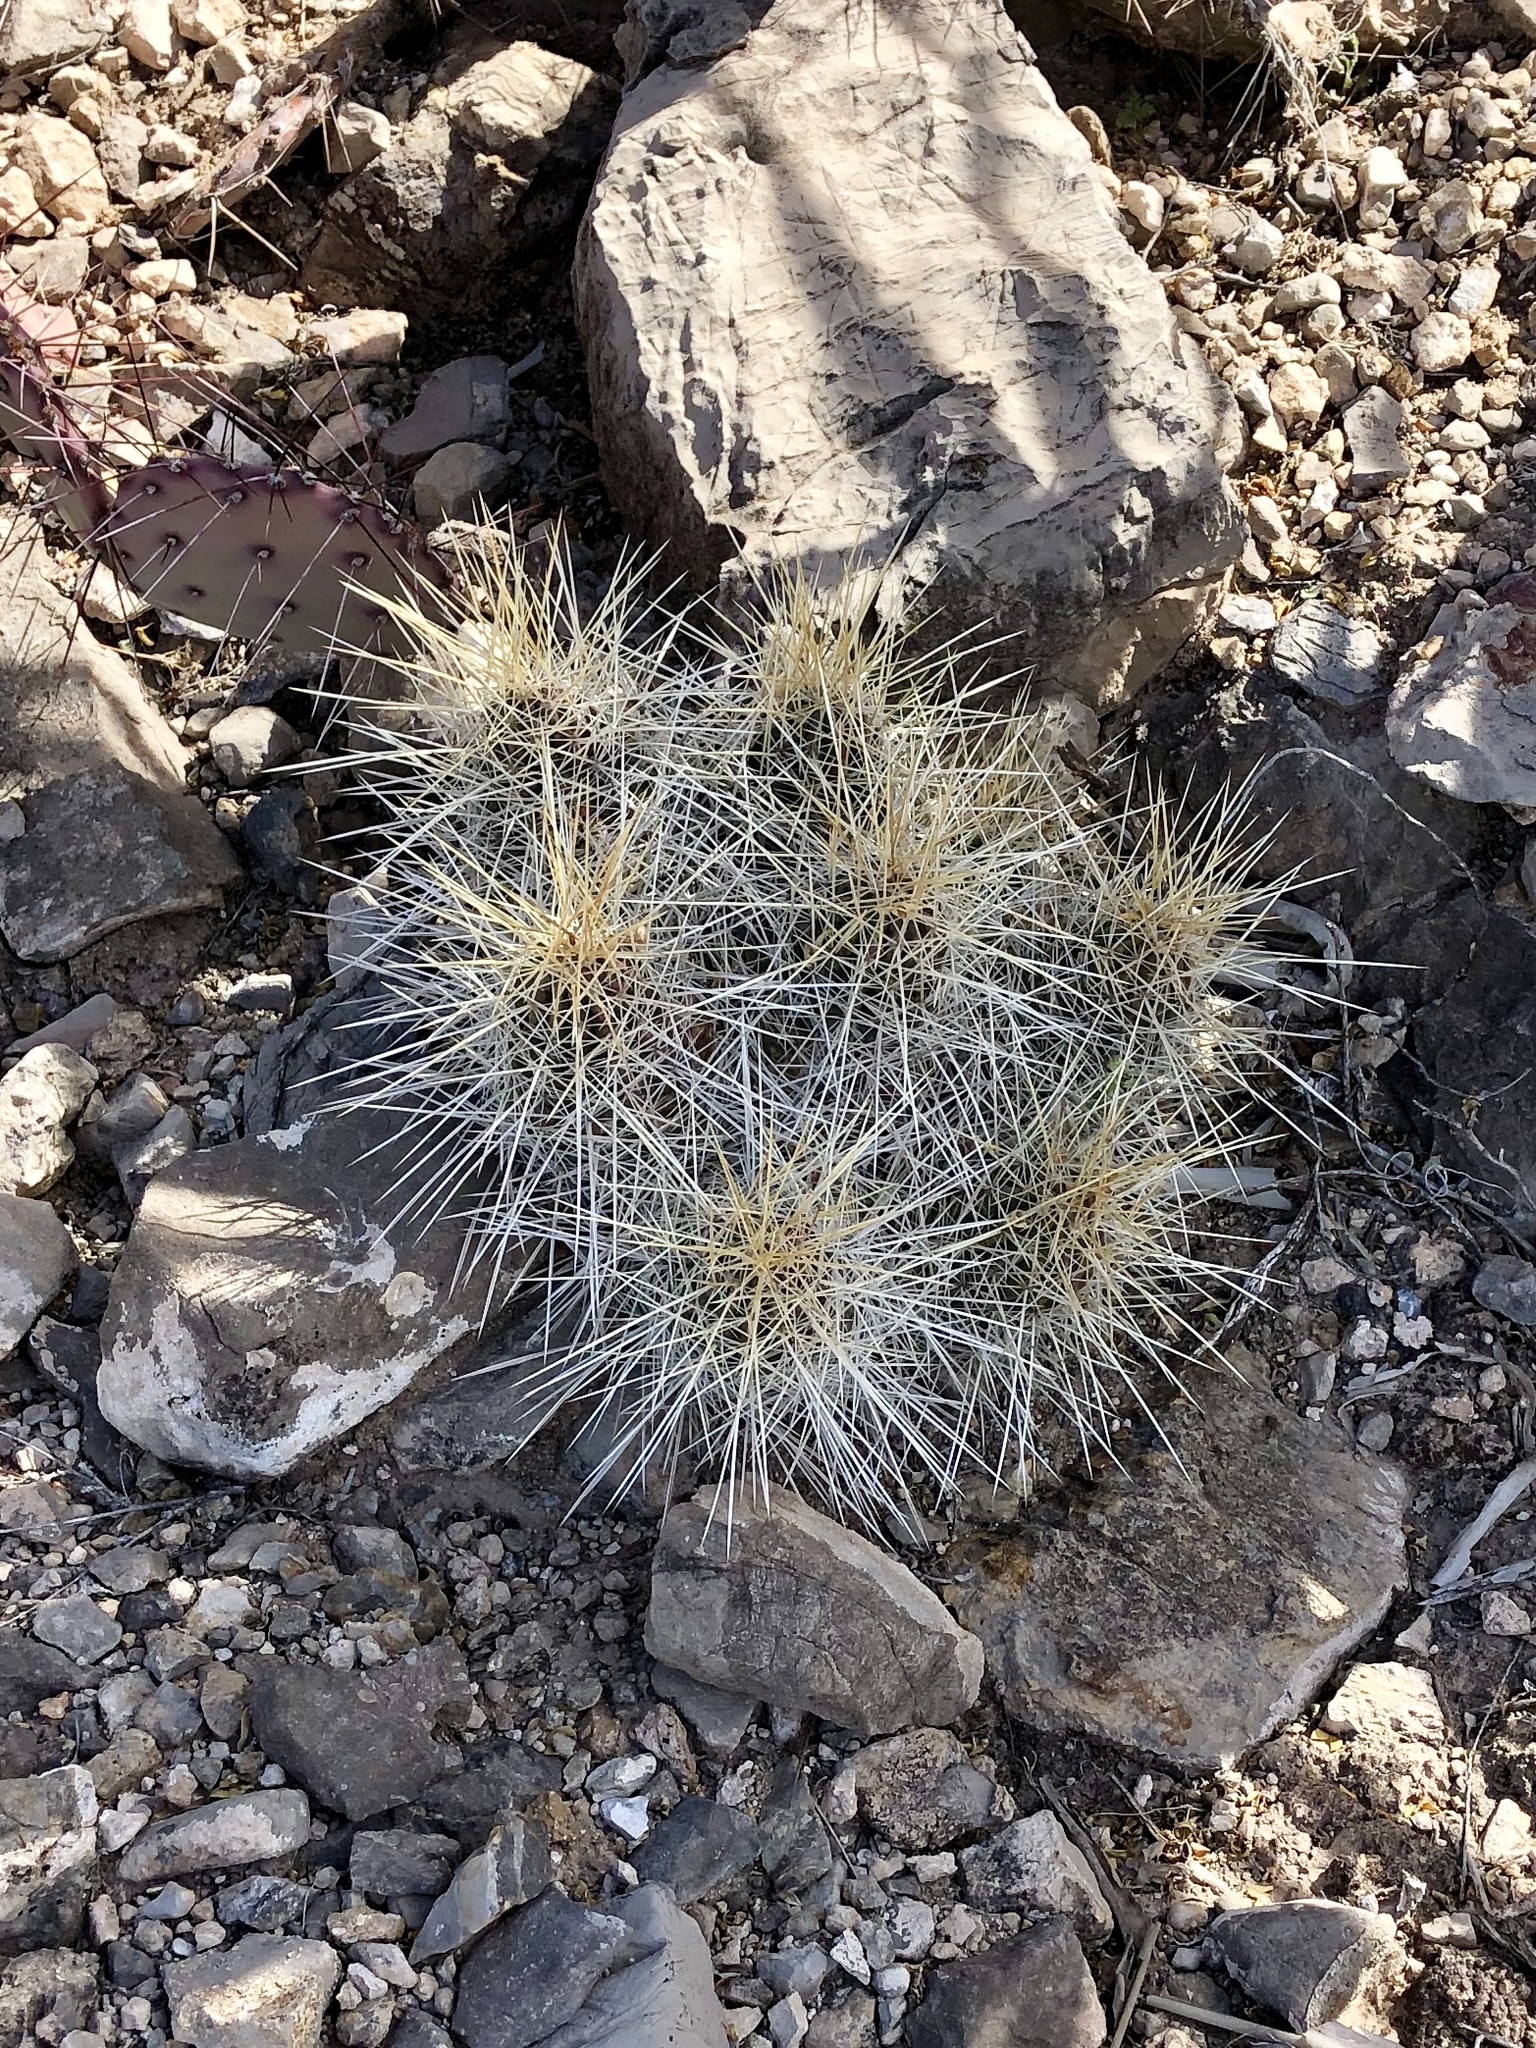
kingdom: Plantae
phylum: Tracheophyta
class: Magnoliopsida
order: Caryophyllales
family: Cactaceae
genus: Echinocereus
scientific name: Echinocereus stramineus
